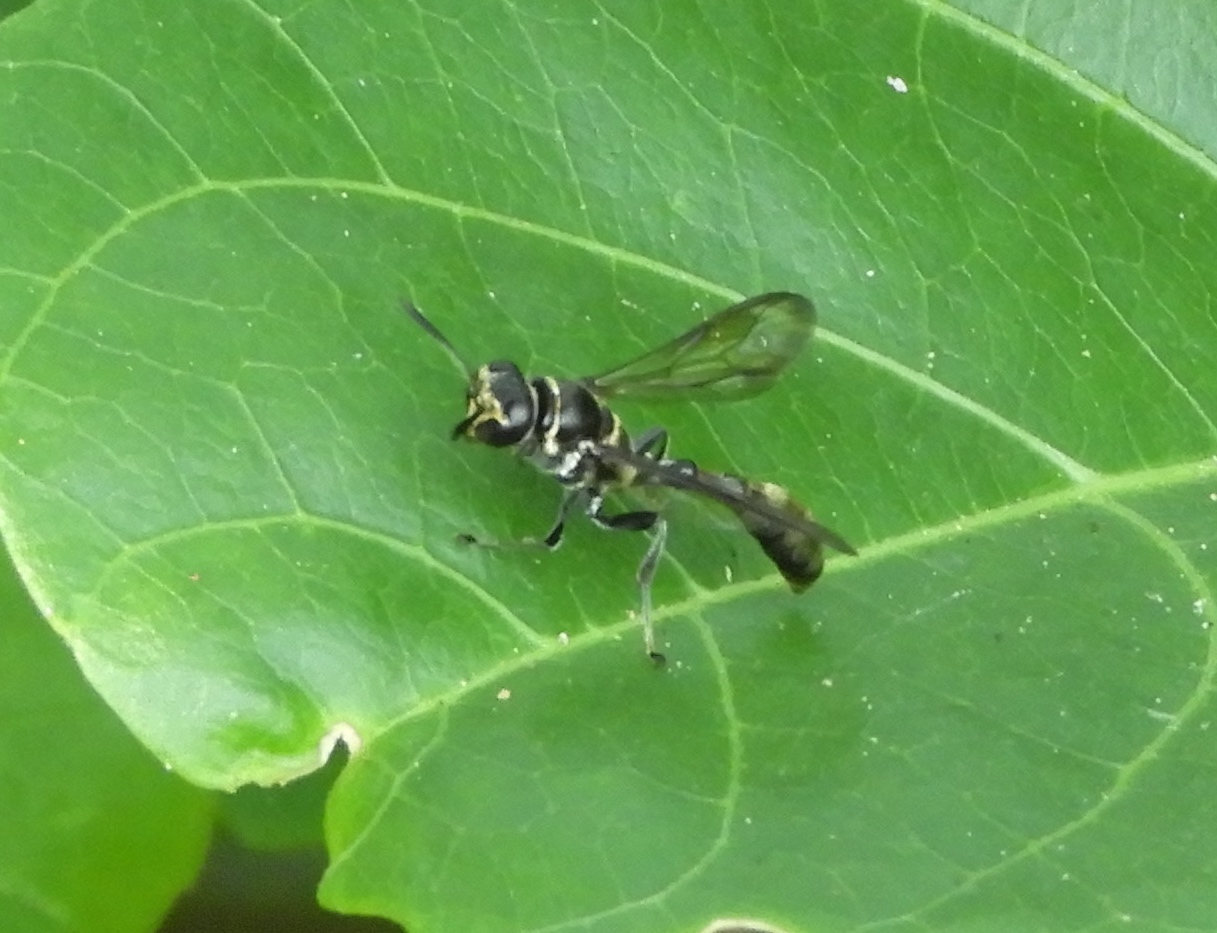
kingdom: Animalia
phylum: Arthropoda
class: Insecta
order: Hymenoptera
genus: Trypargilum
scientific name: Trypargilum
